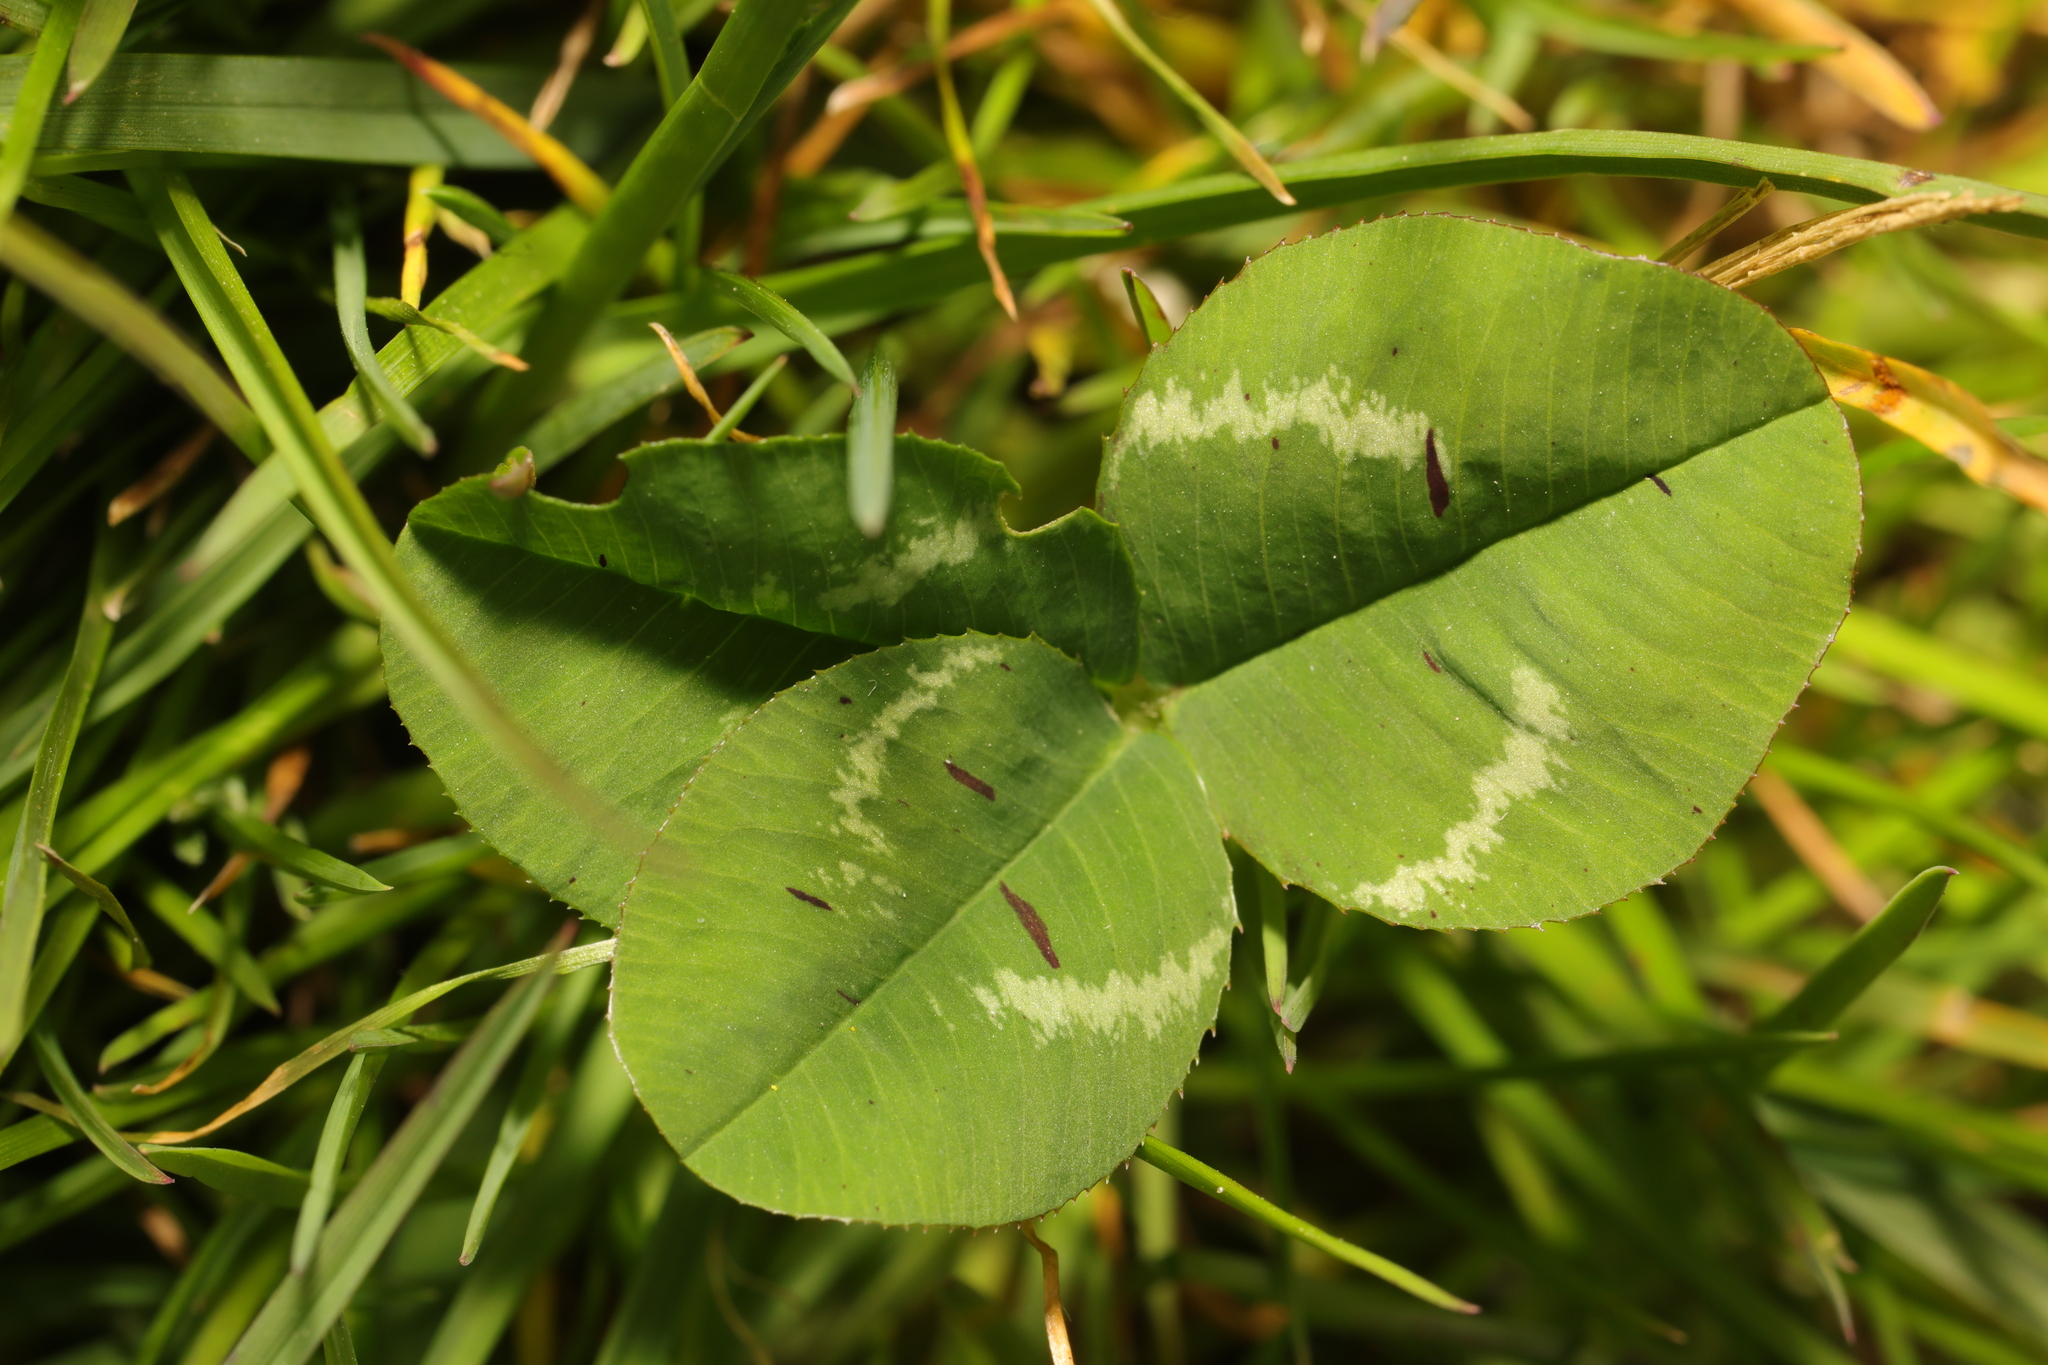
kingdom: Plantae
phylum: Tracheophyta
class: Magnoliopsida
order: Fabales
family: Fabaceae
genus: Trifolium
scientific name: Trifolium repens
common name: White clover
